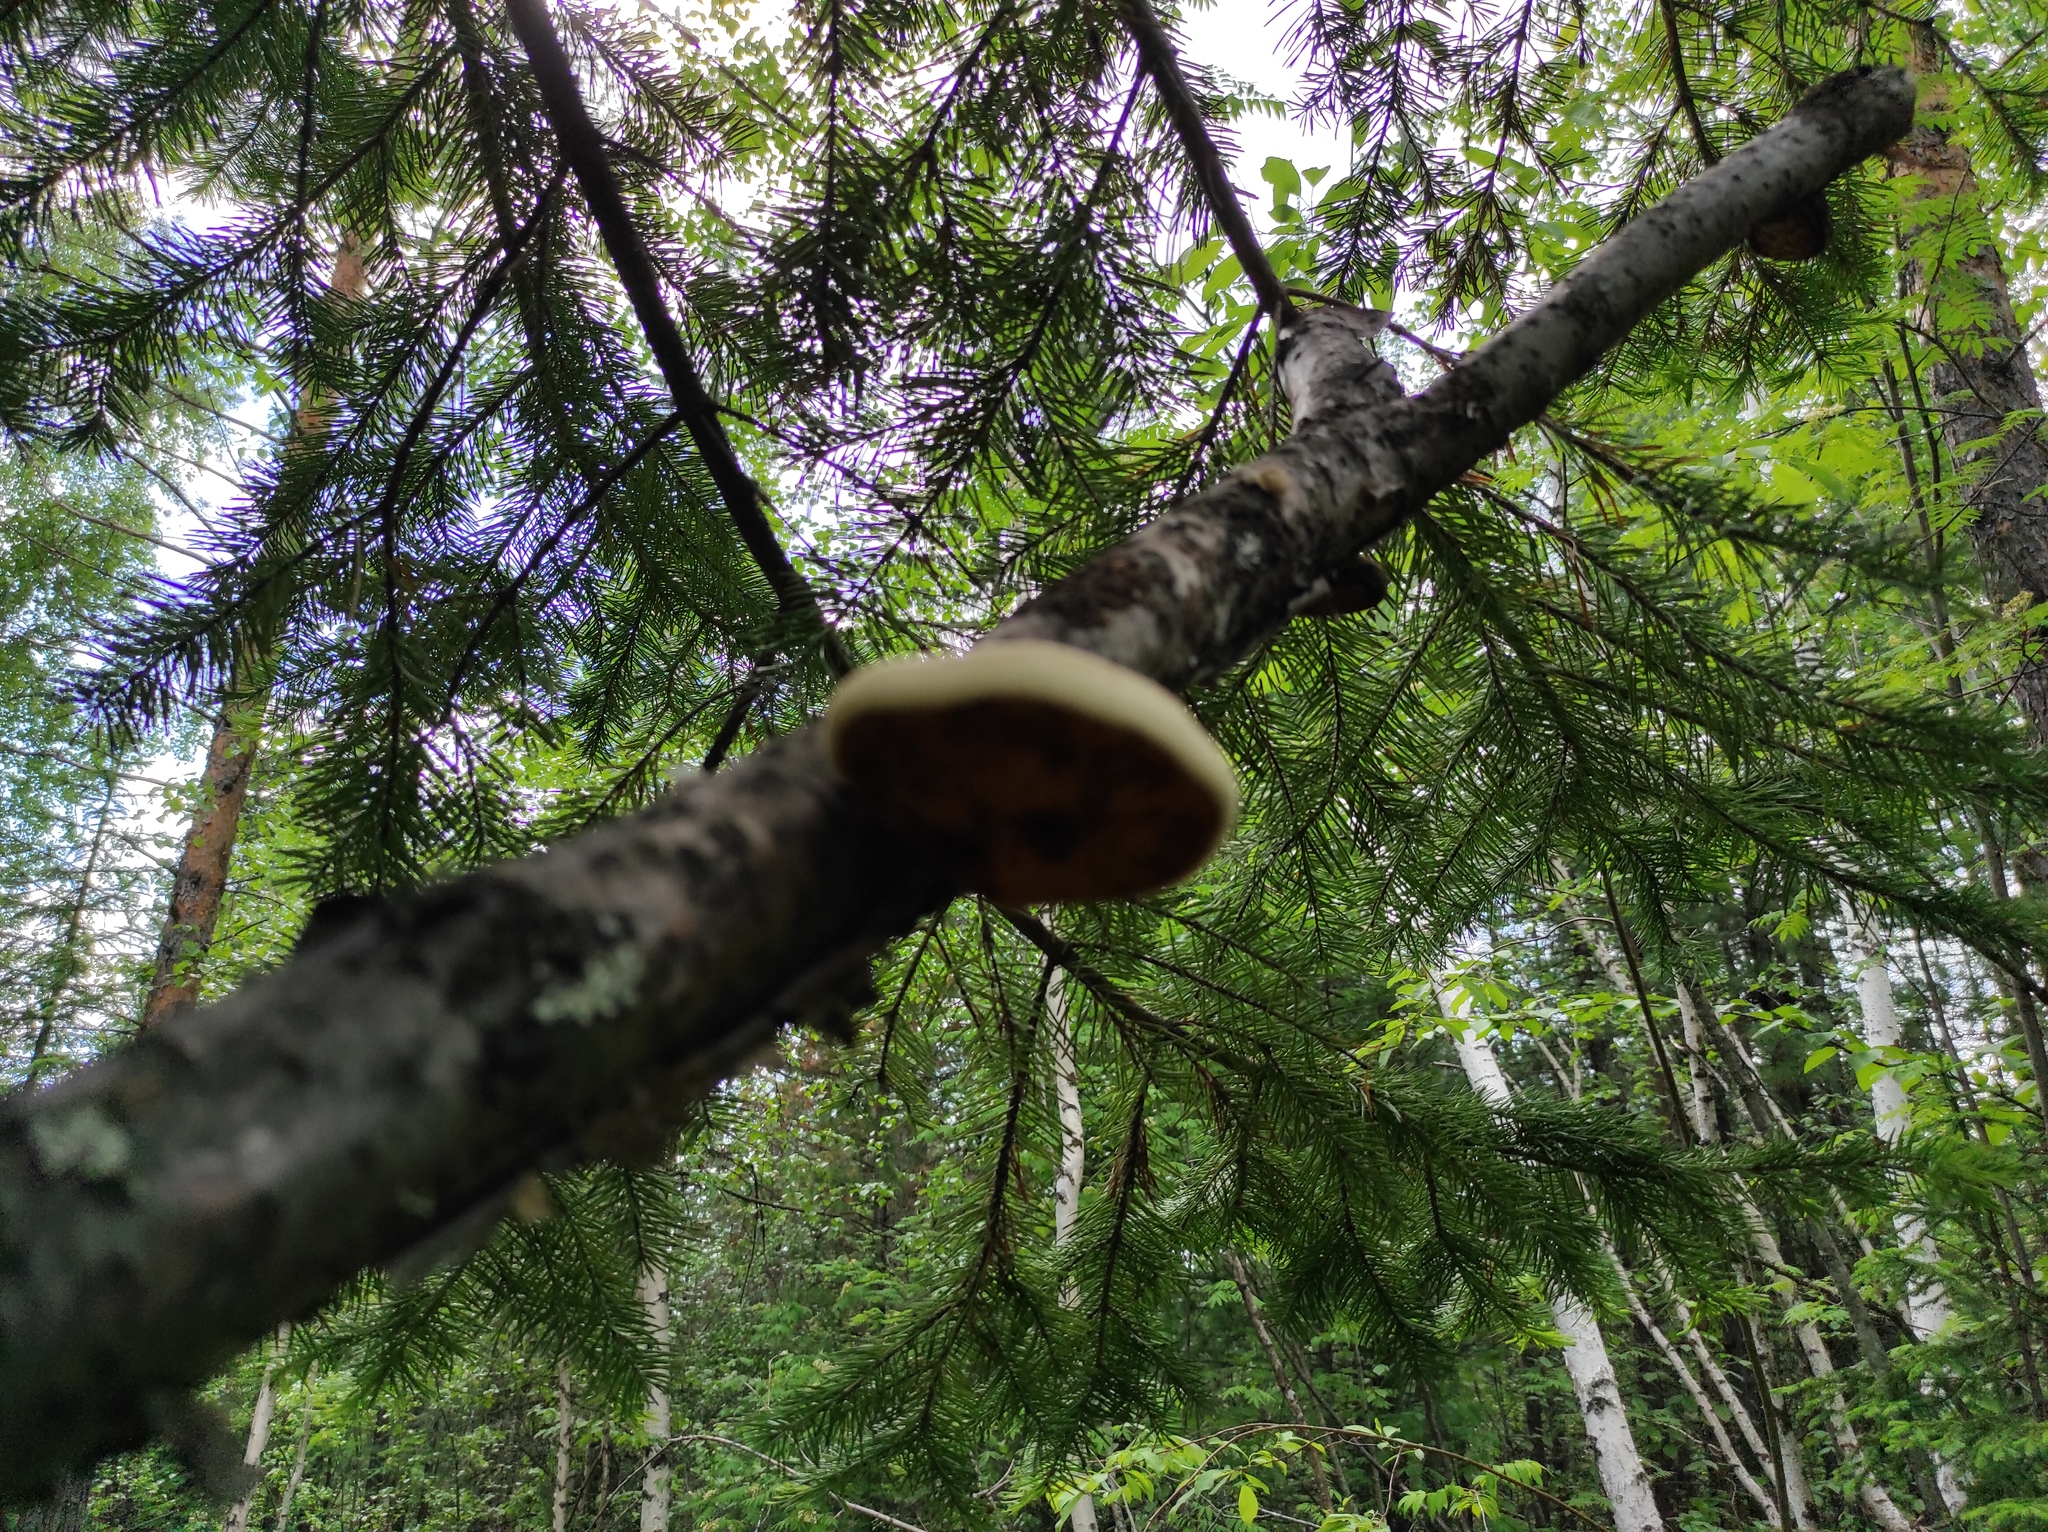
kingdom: Fungi
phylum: Basidiomycota
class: Agaricomycetes
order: Polyporales
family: Fomitopsidaceae
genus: Fomitopsis
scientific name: Fomitopsis betulina
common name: Birch polypore
